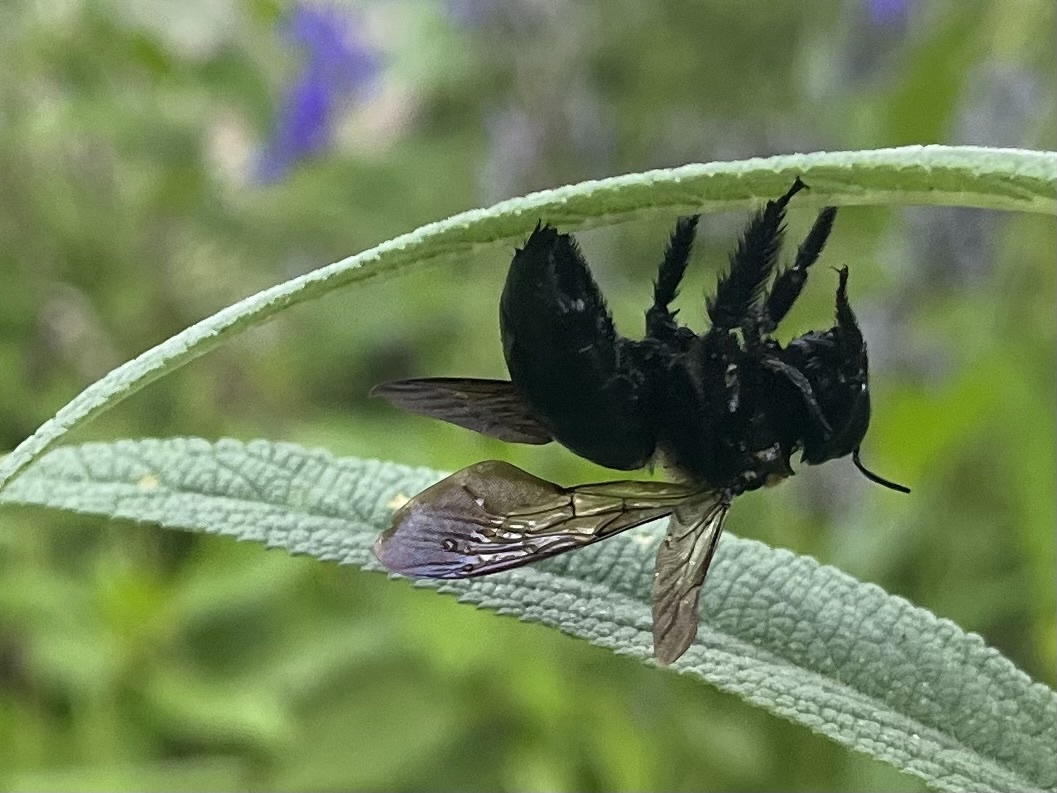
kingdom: Animalia
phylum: Arthropoda
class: Insecta
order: Hymenoptera
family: Apidae
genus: Xylocopa
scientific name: Xylocopa micans
